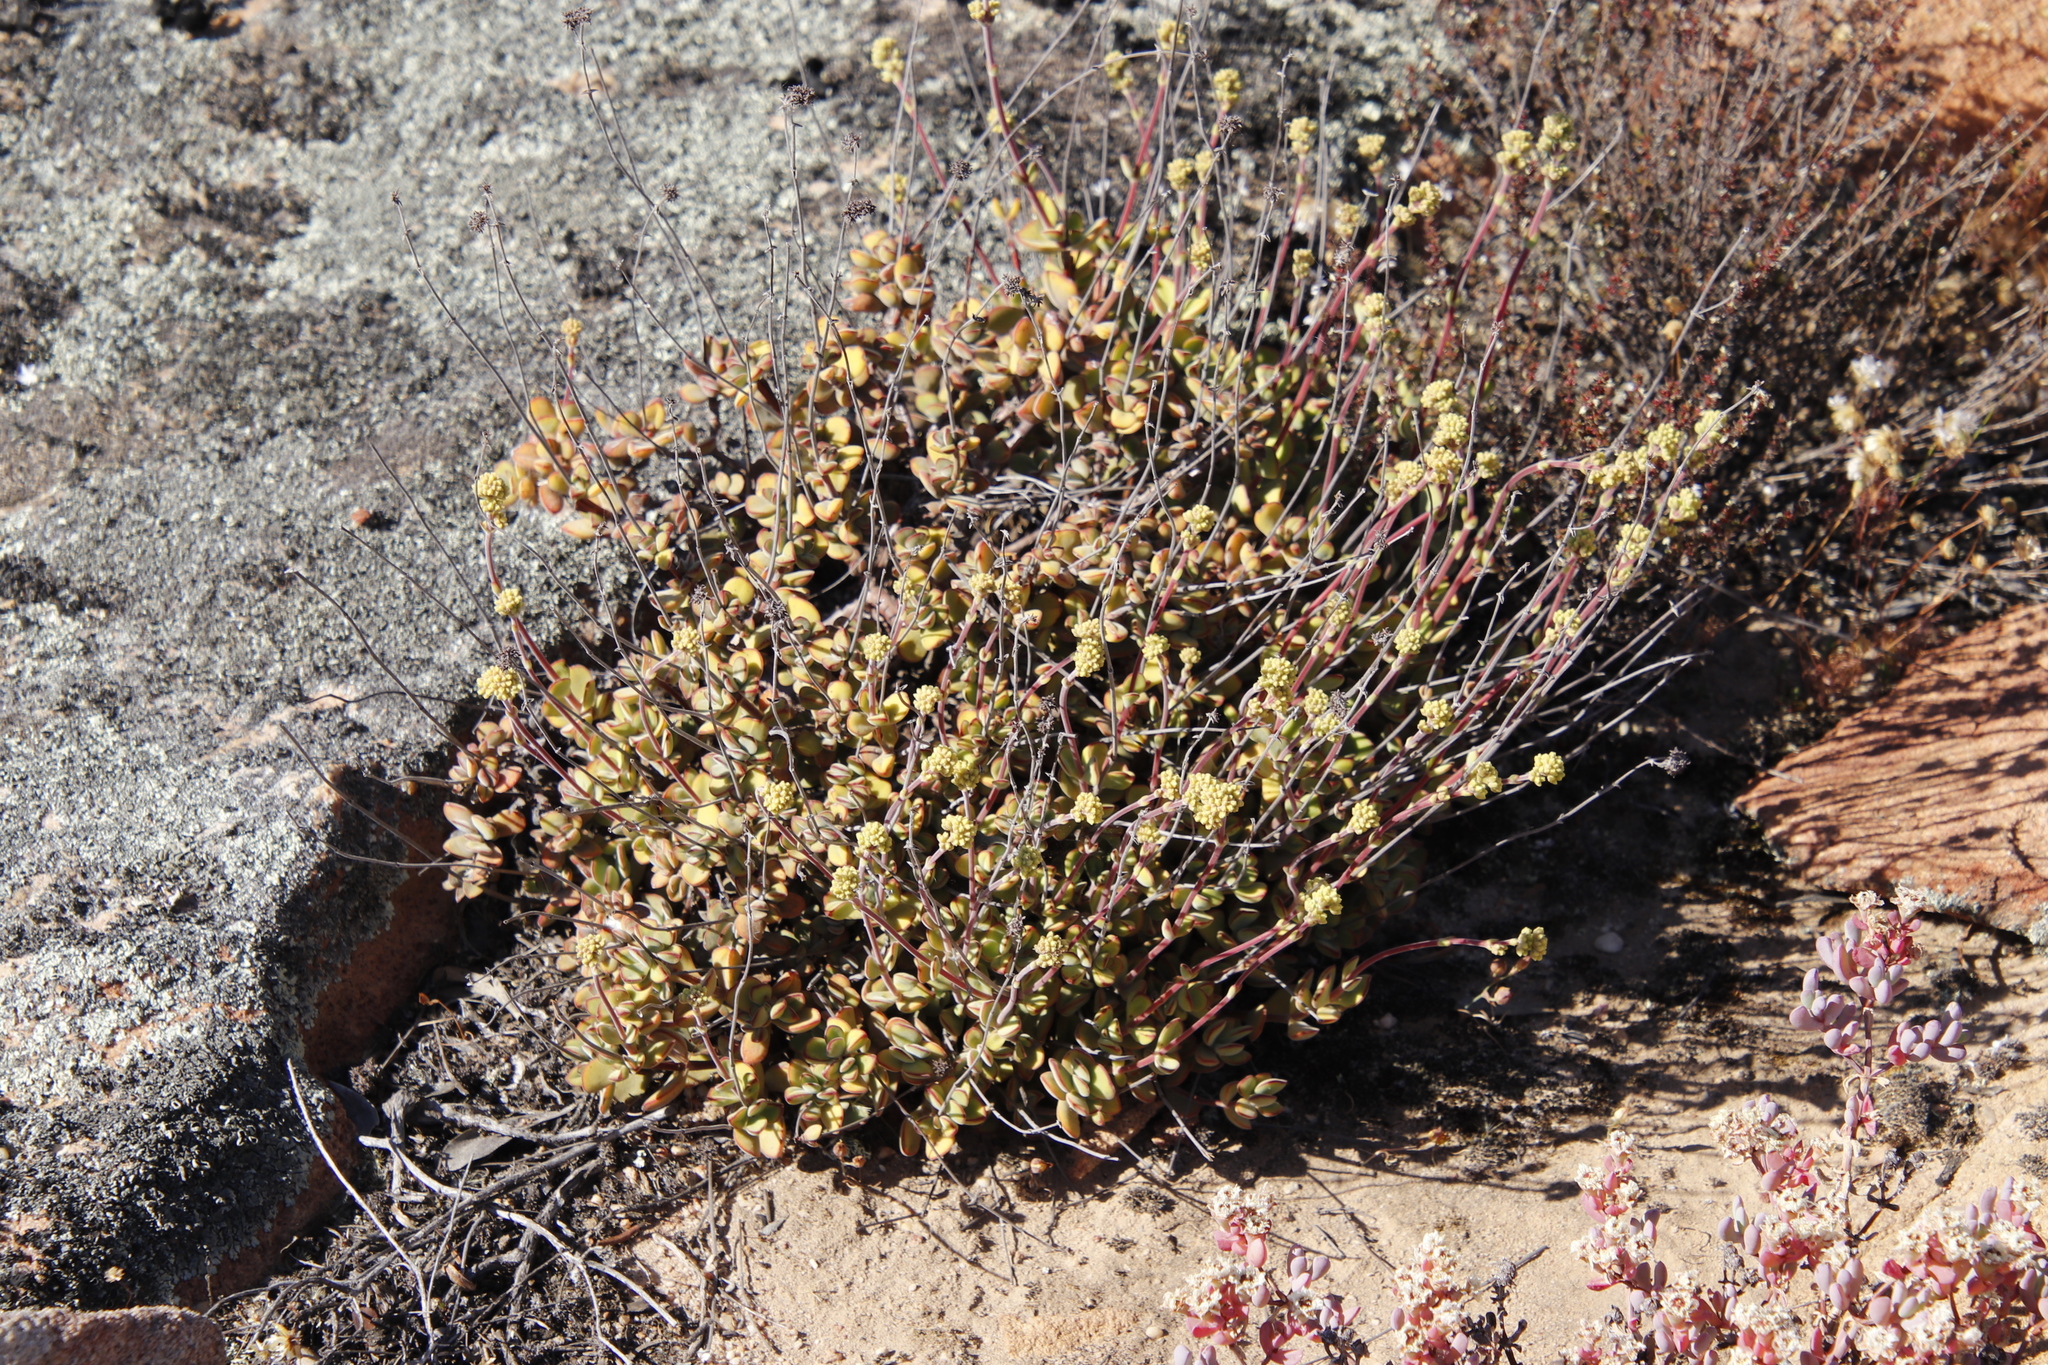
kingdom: Plantae
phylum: Tracheophyta
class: Magnoliopsida
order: Saxifragales
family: Crassulaceae
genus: Crassula
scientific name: Crassula atropurpurea
